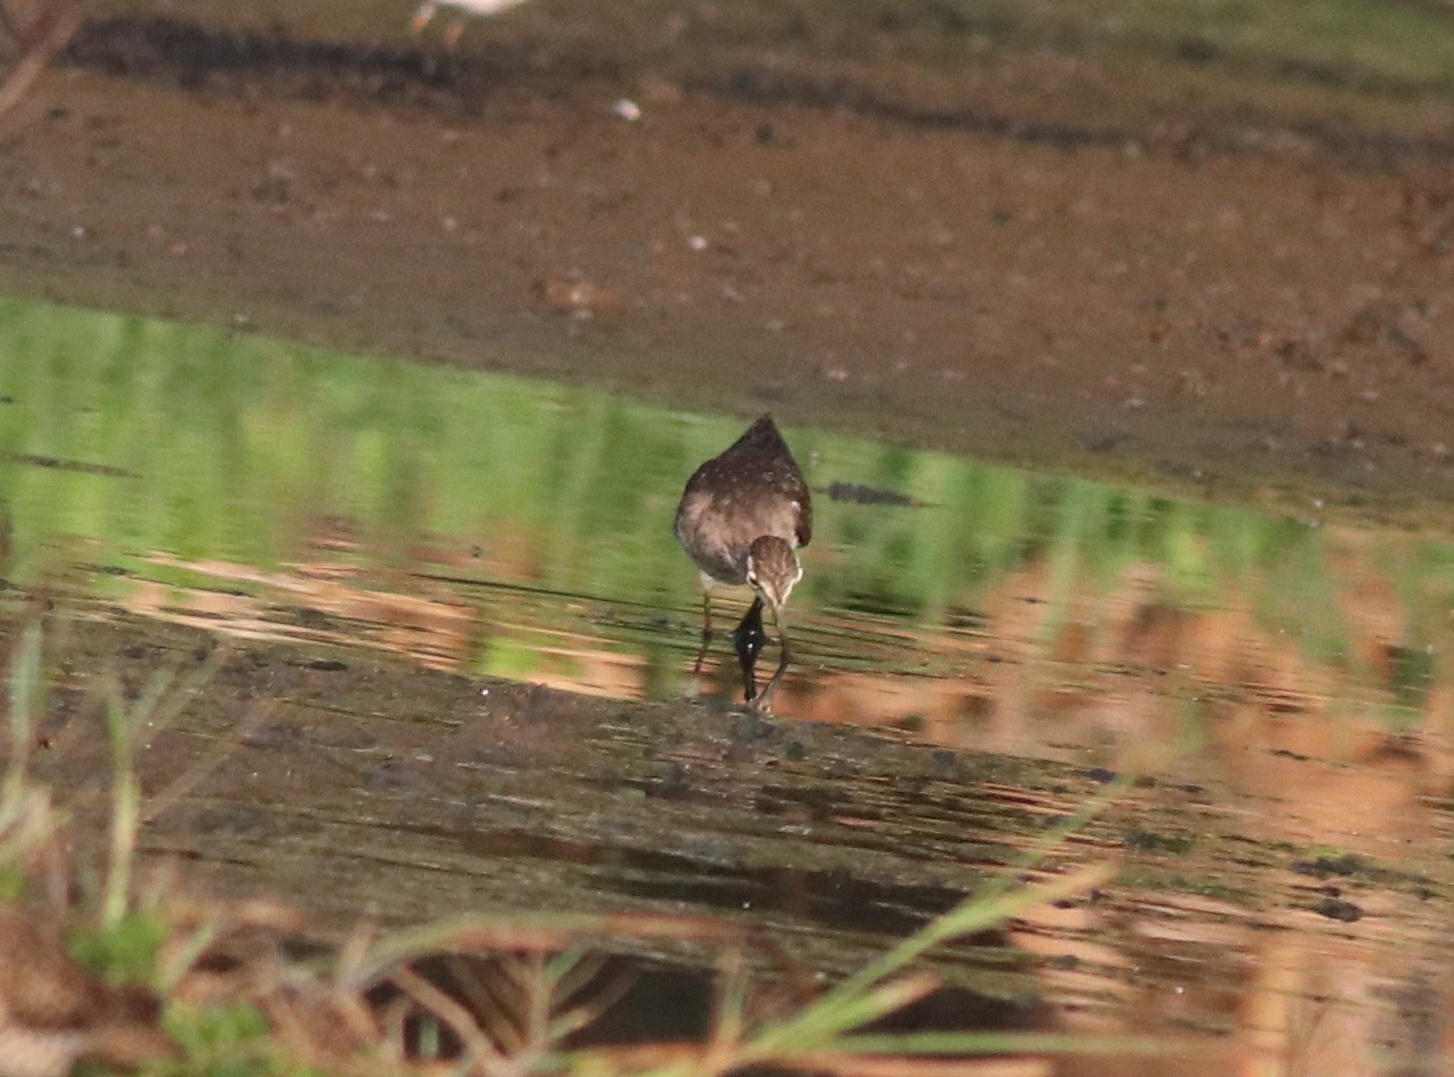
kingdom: Animalia
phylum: Chordata
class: Aves
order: Charadriiformes
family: Scolopacidae
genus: Tringa
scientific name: Tringa glareola
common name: Wood sandpiper
